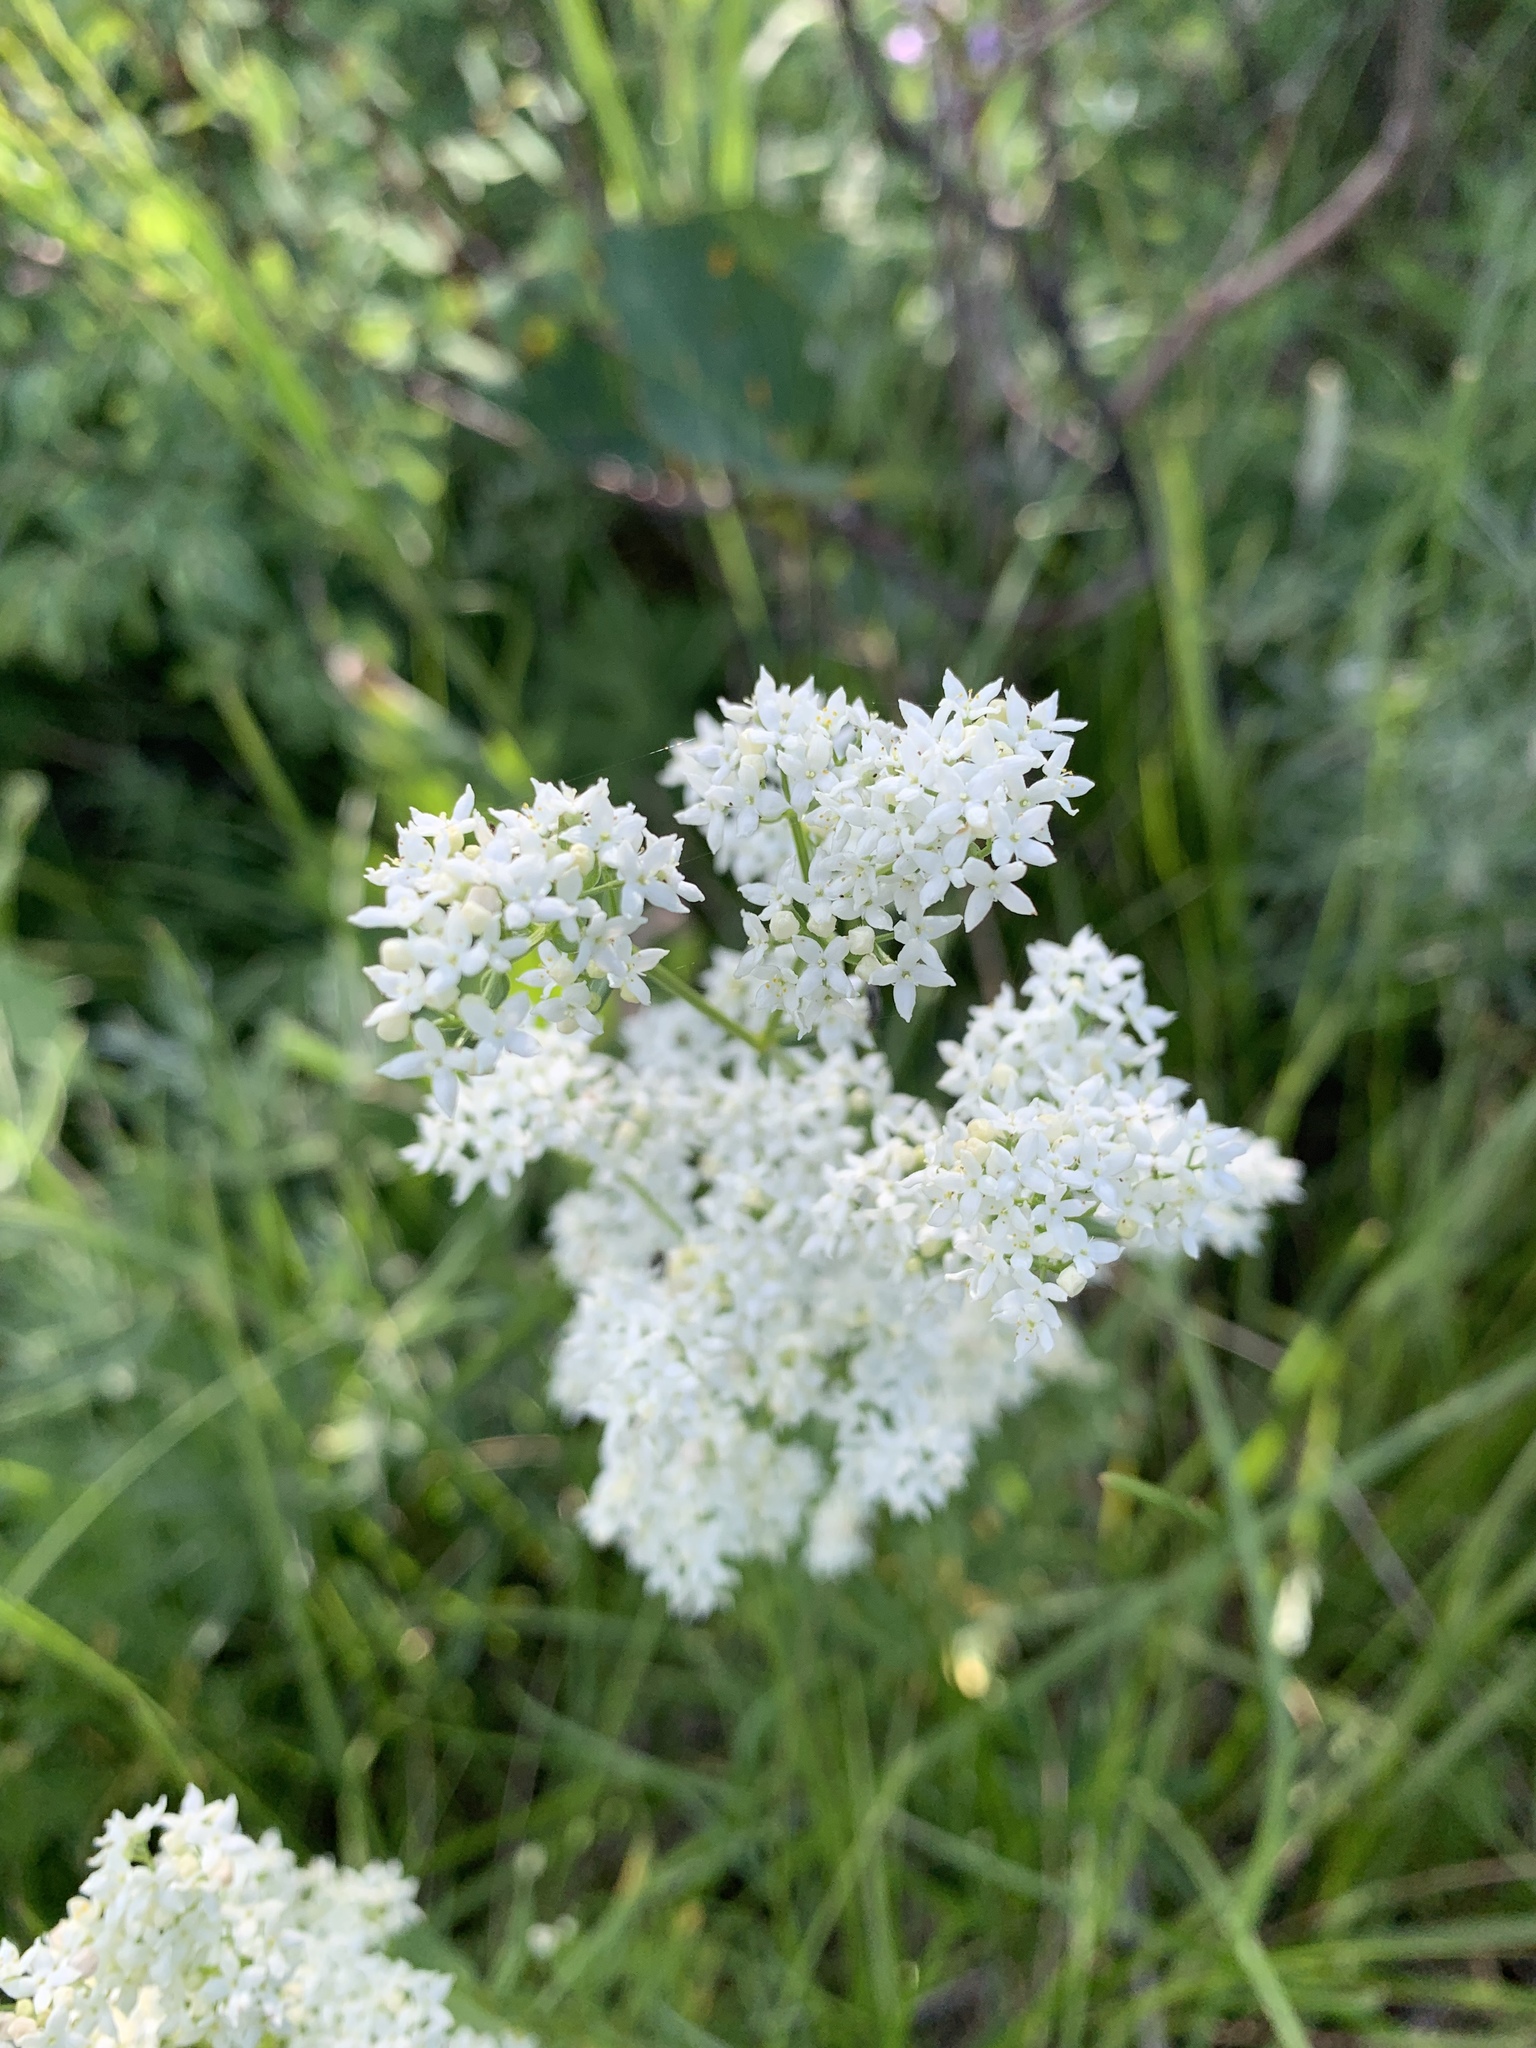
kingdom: Plantae
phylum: Tracheophyta
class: Magnoliopsida
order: Gentianales
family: Rubiaceae
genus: Galium
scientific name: Galium boreale
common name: Northern bedstraw
